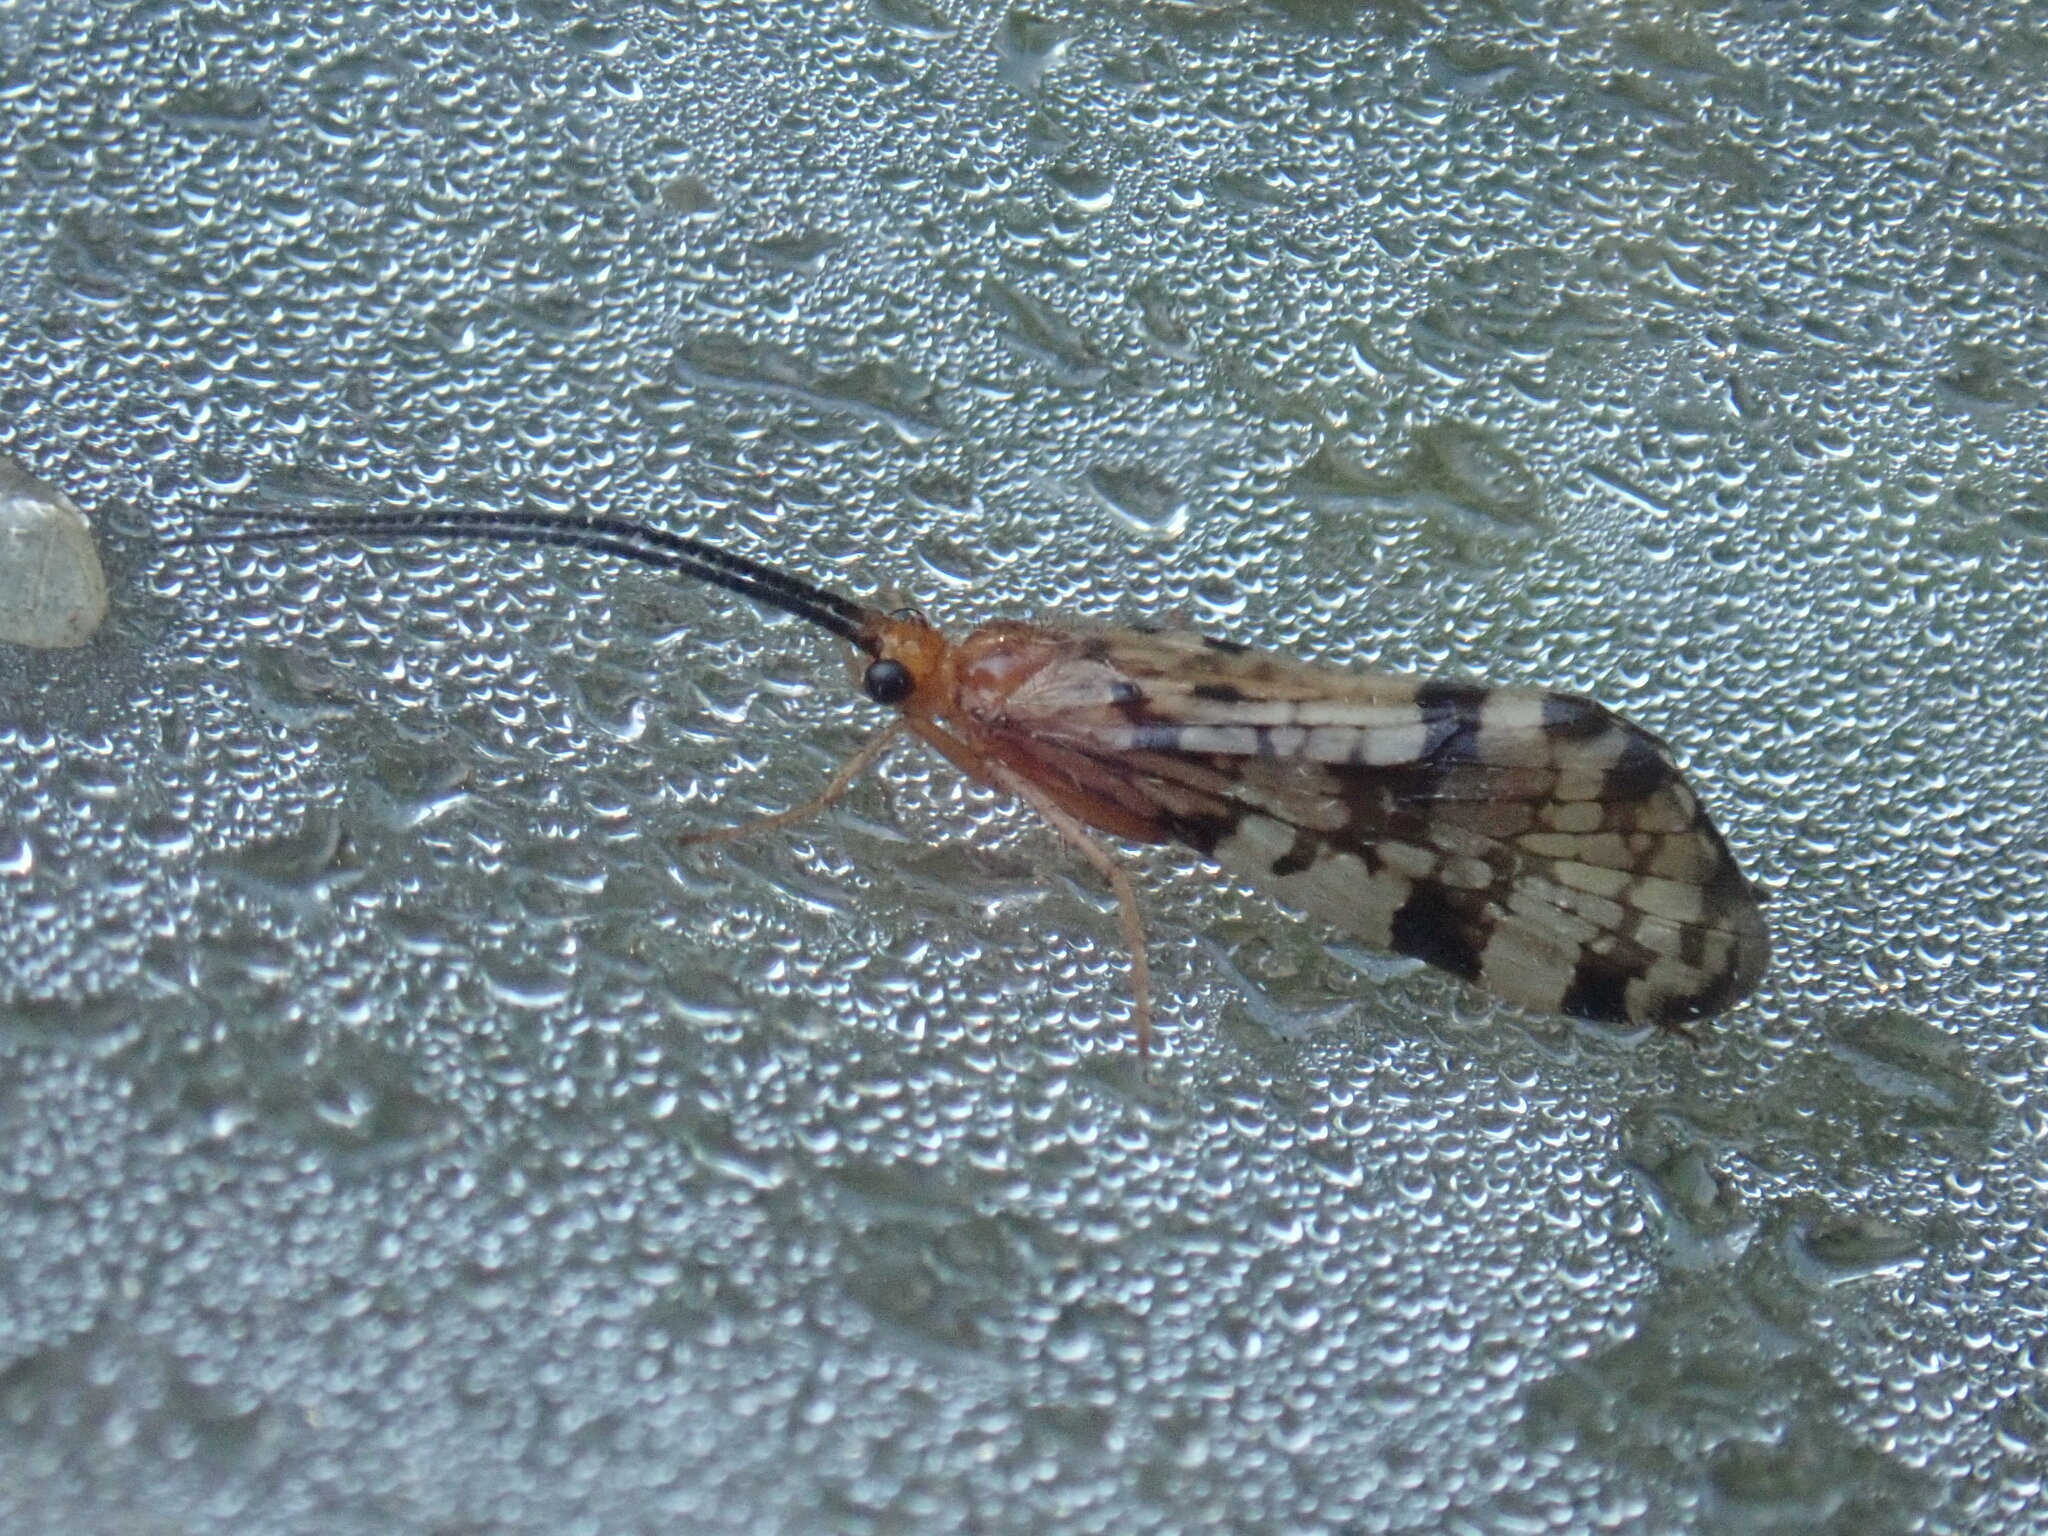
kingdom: Animalia
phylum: Arthropoda
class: Insecta
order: Trichoptera
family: Phryganeidae
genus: Banksiola
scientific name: Banksiola dossuaria
